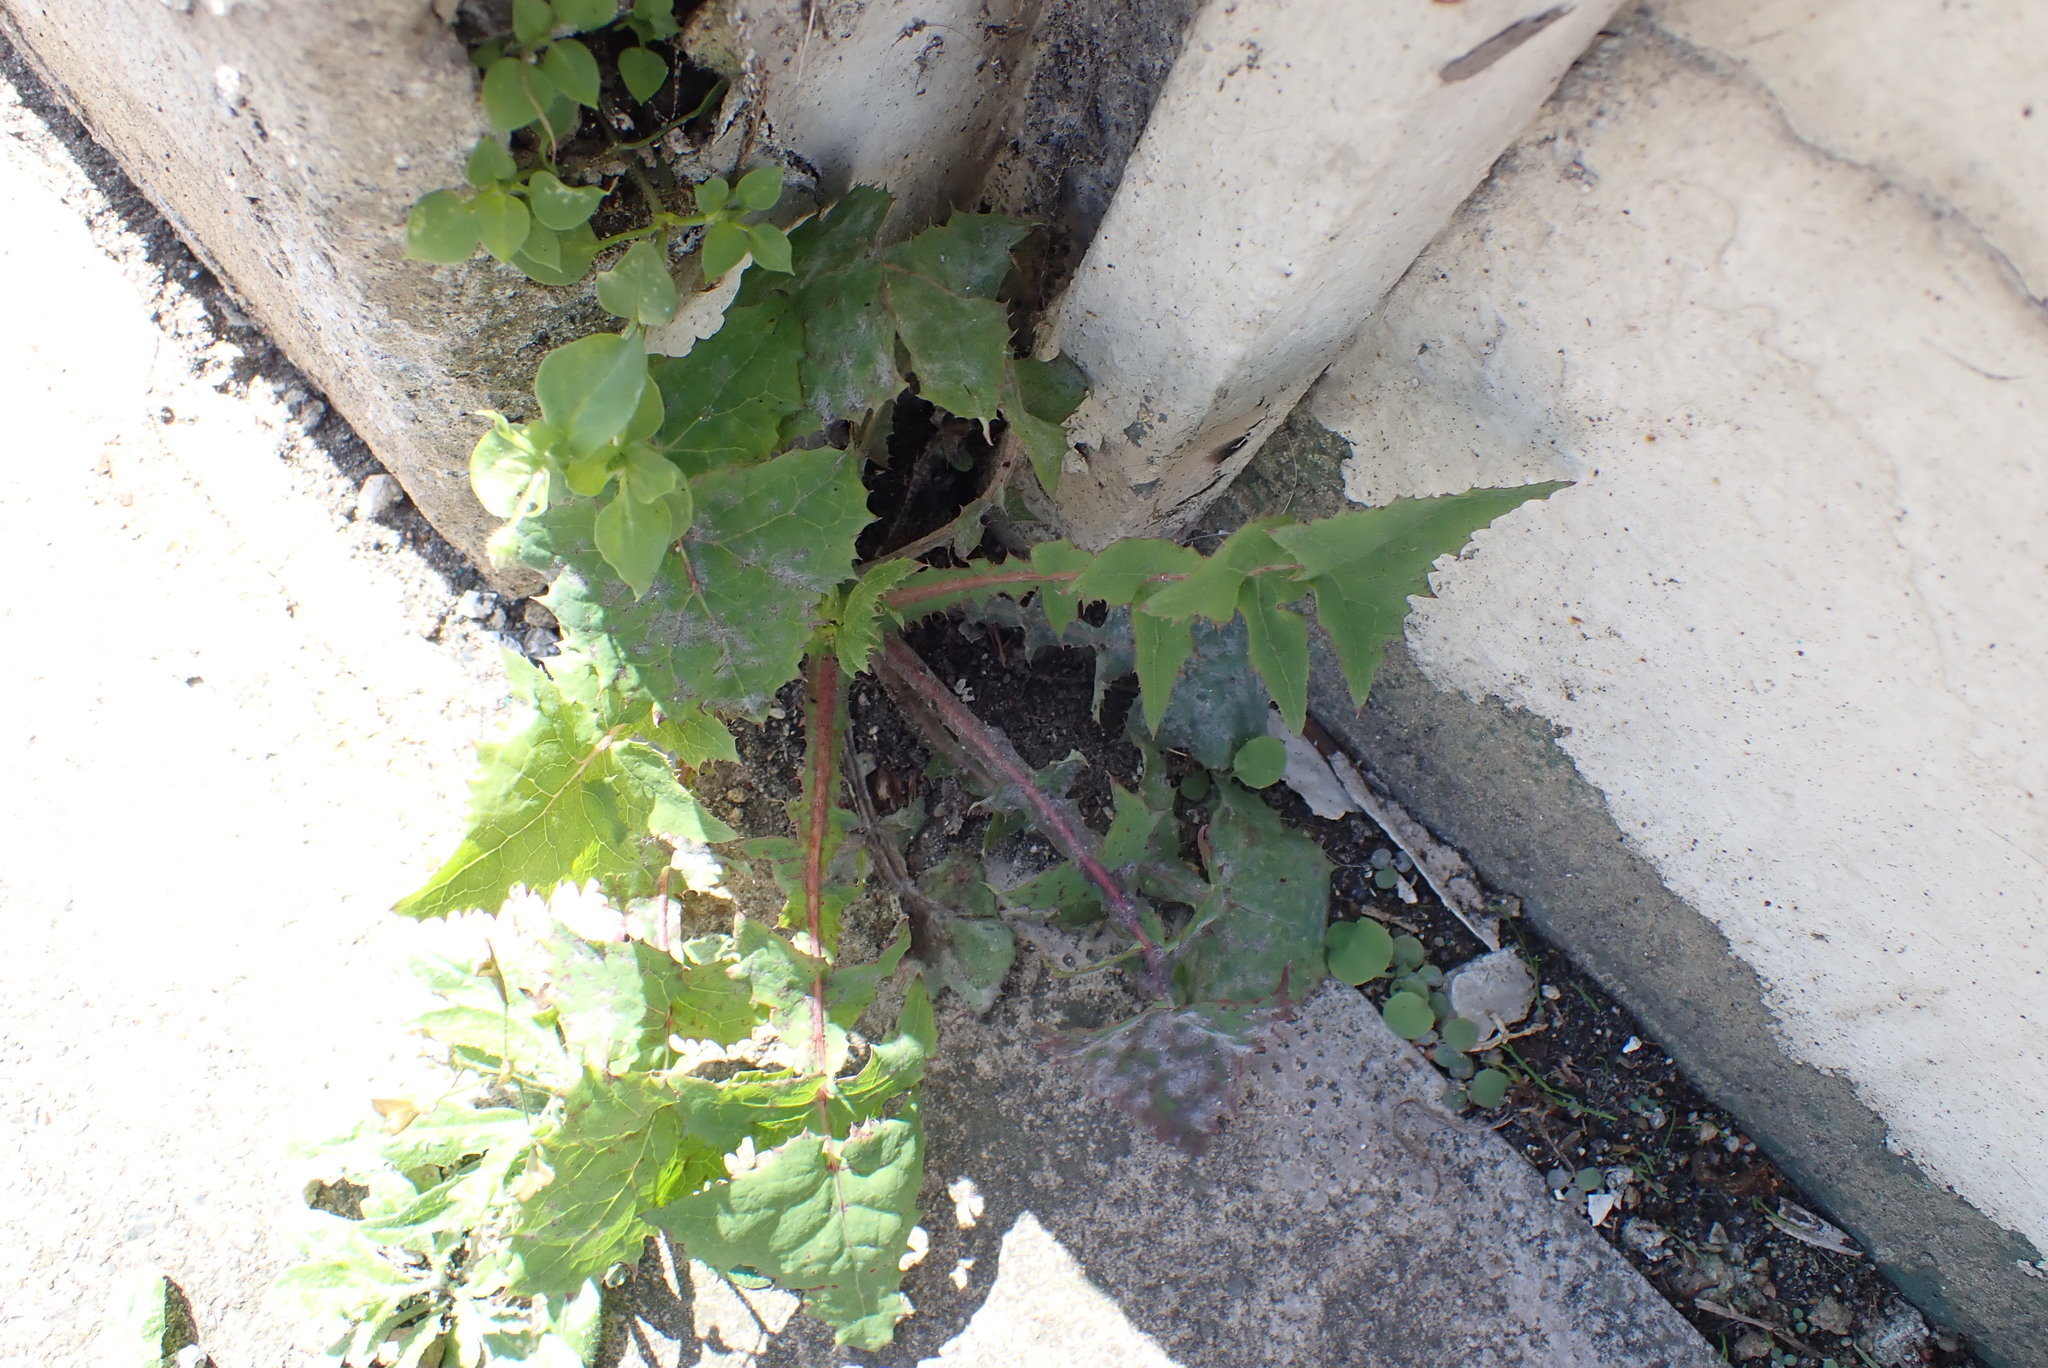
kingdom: Plantae
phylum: Tracheophyta
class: Magnoliopsida
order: Asterales
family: Asteraceae
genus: Sonchus
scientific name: Sonchus oleraceus
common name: Common sowthistle
